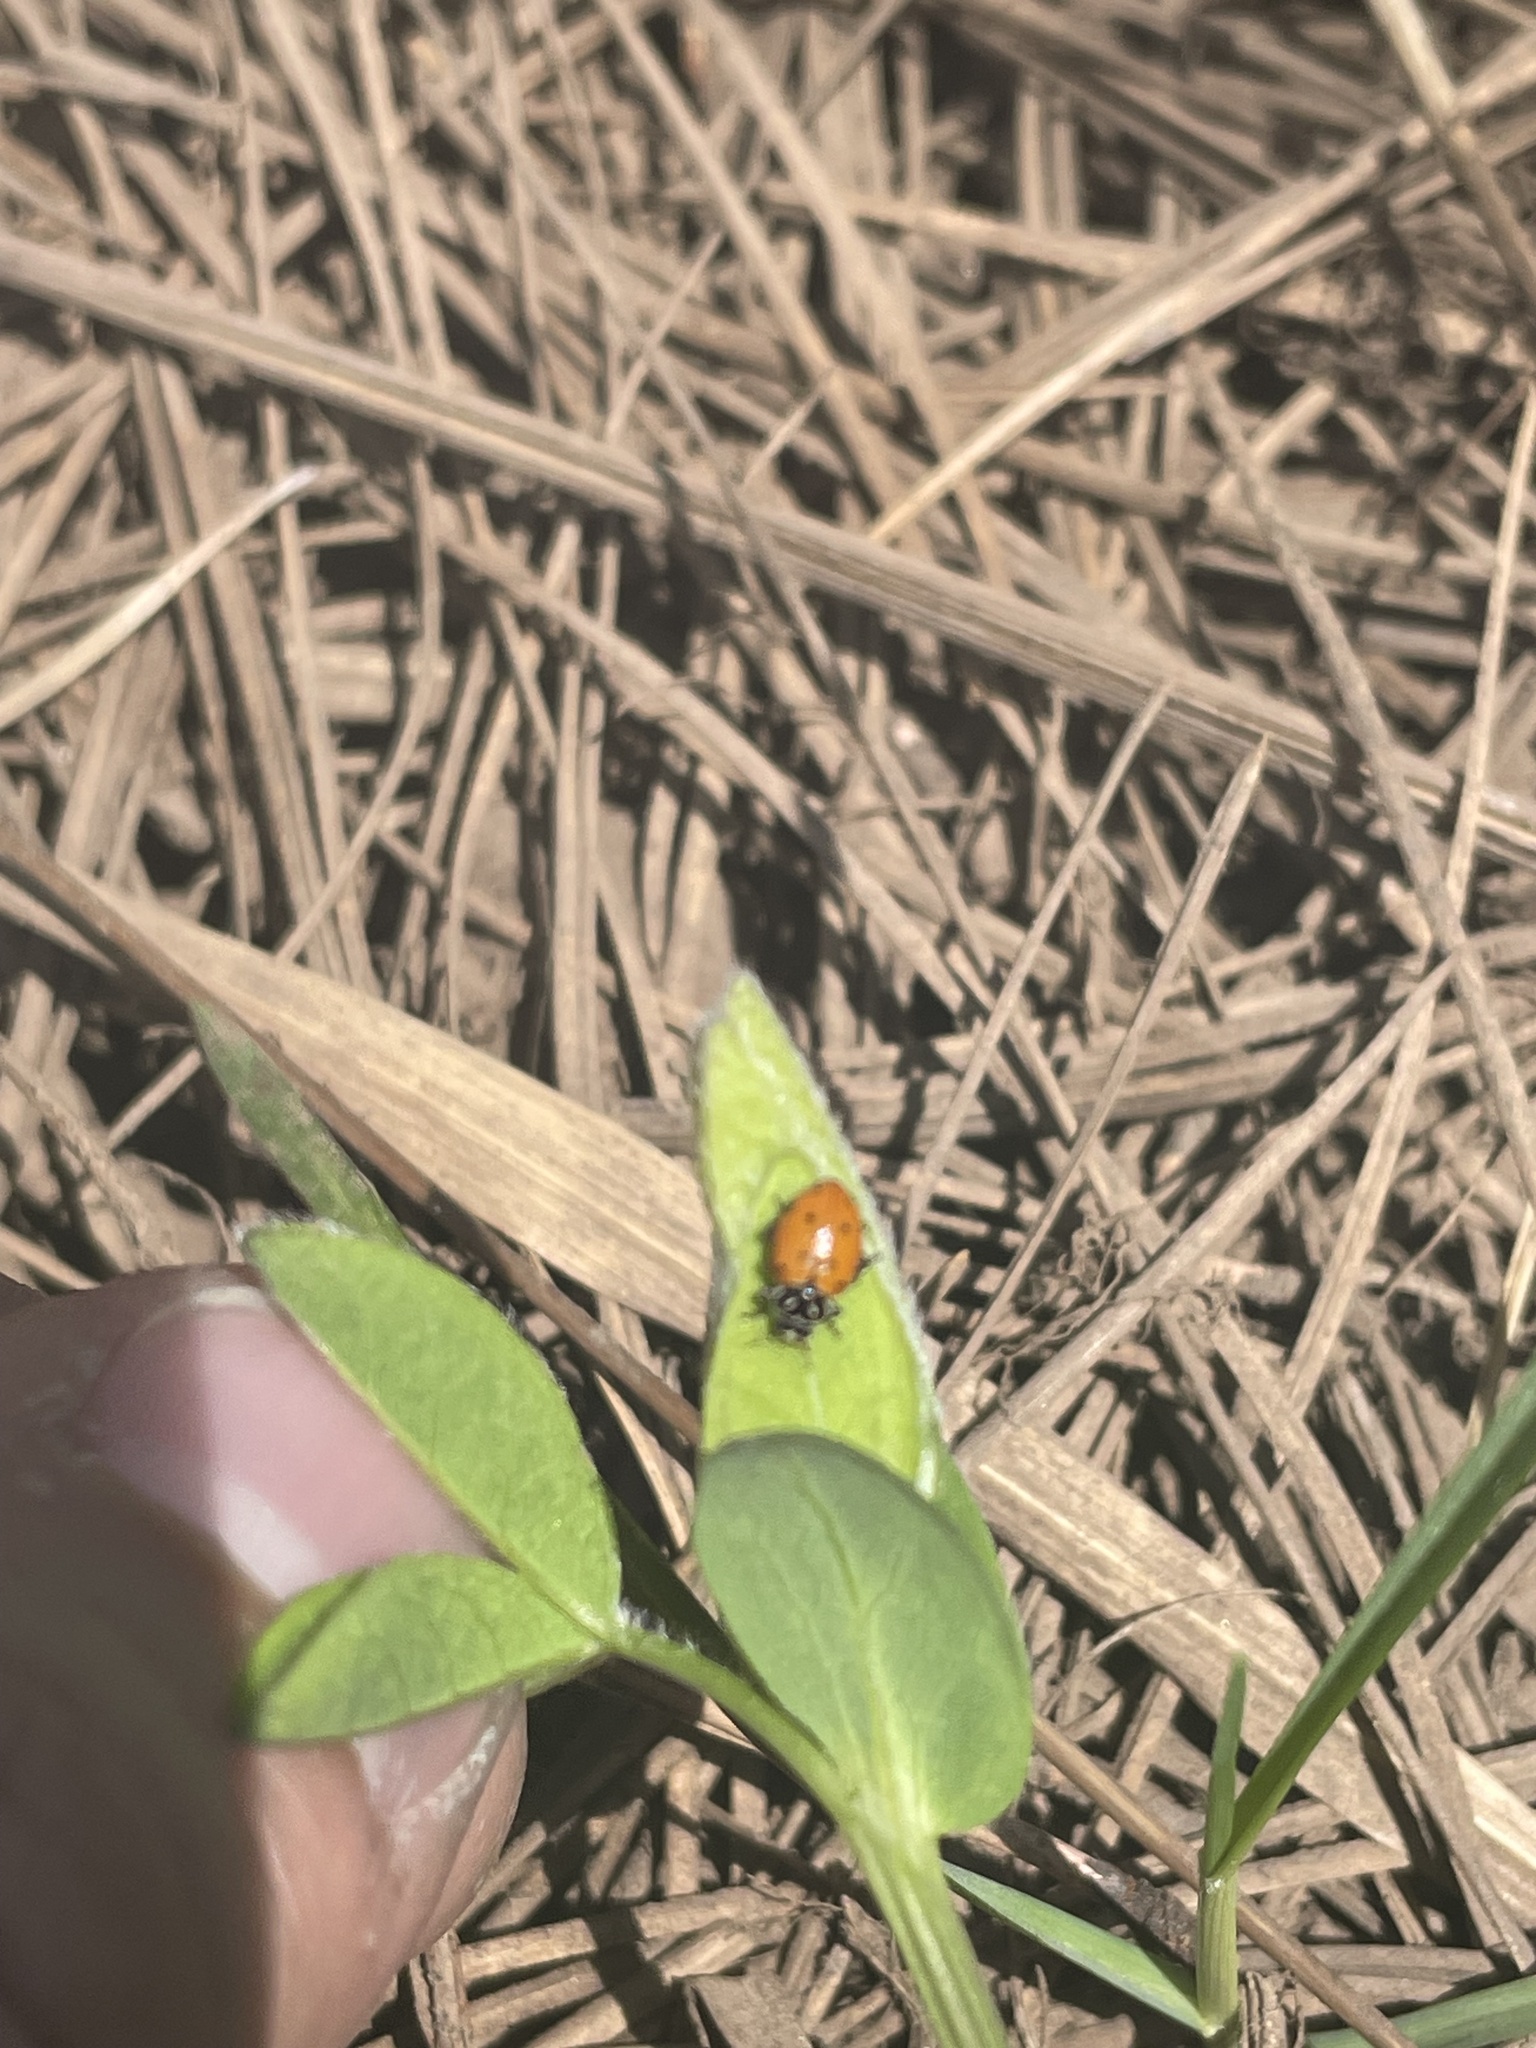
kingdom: Animalia
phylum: Arthropoda
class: Insecta
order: Coleoptera
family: Coccinellidae
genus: Hippodamia
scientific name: Hippodamia convergens
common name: Convergent lady beetle
